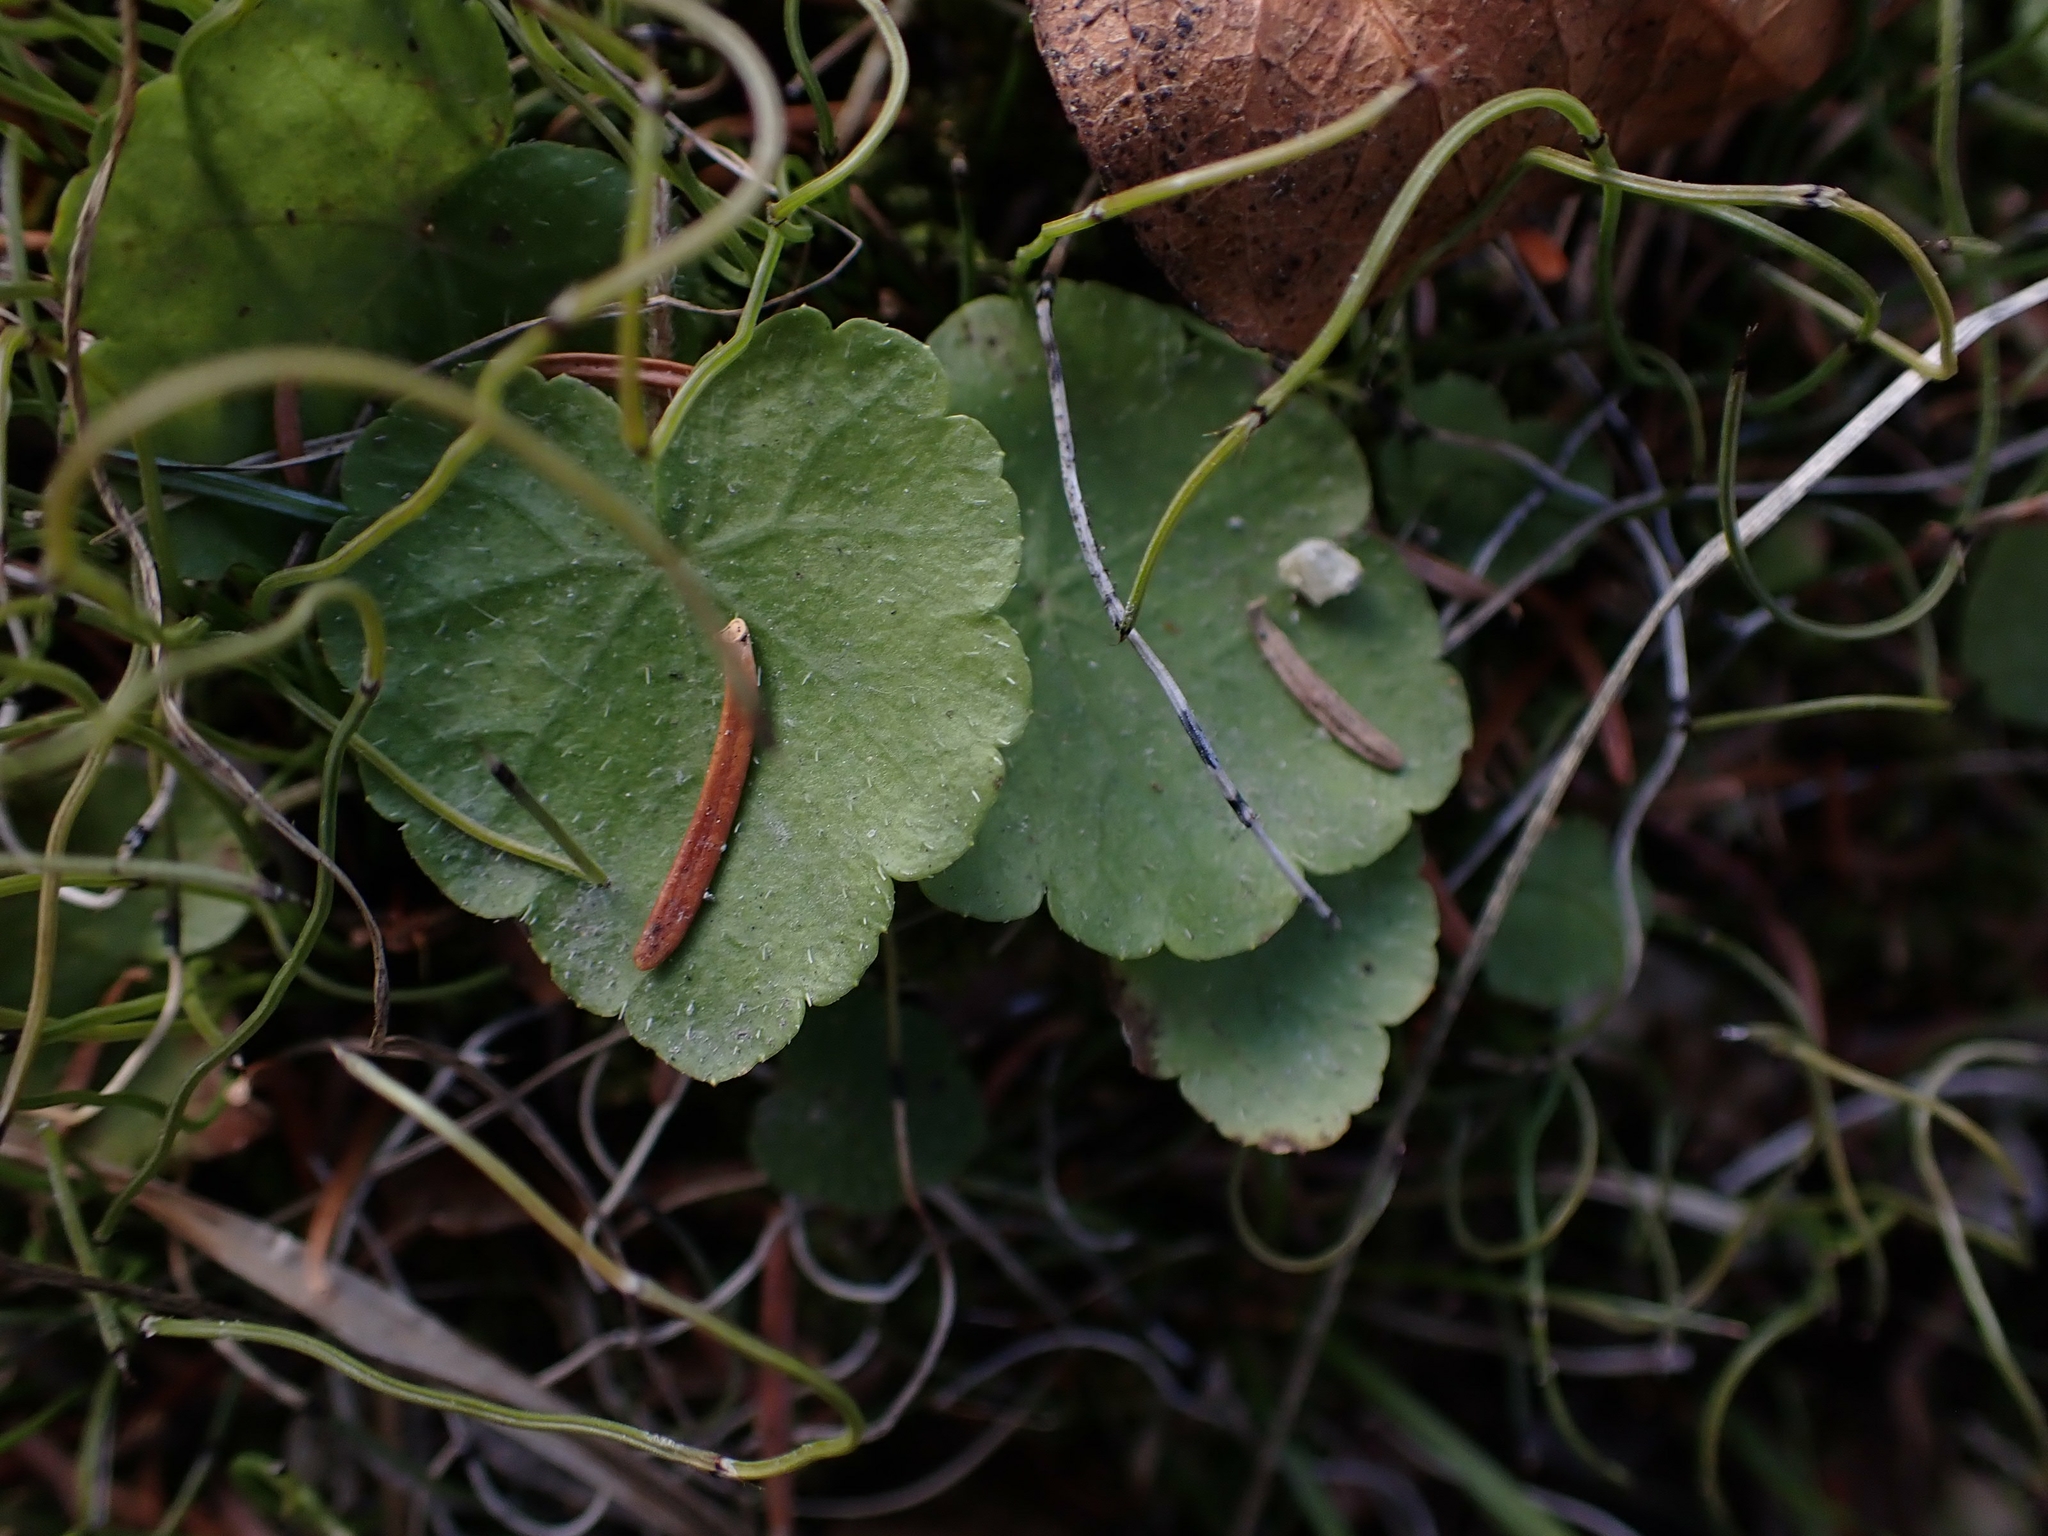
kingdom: Plantae
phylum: Tracheophyta
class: Magnoliopsida
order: Saxifragales
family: Saxifragaceae
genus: Mitella
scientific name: Mitella nuda
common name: Bare-stemmed bishop's-cap
